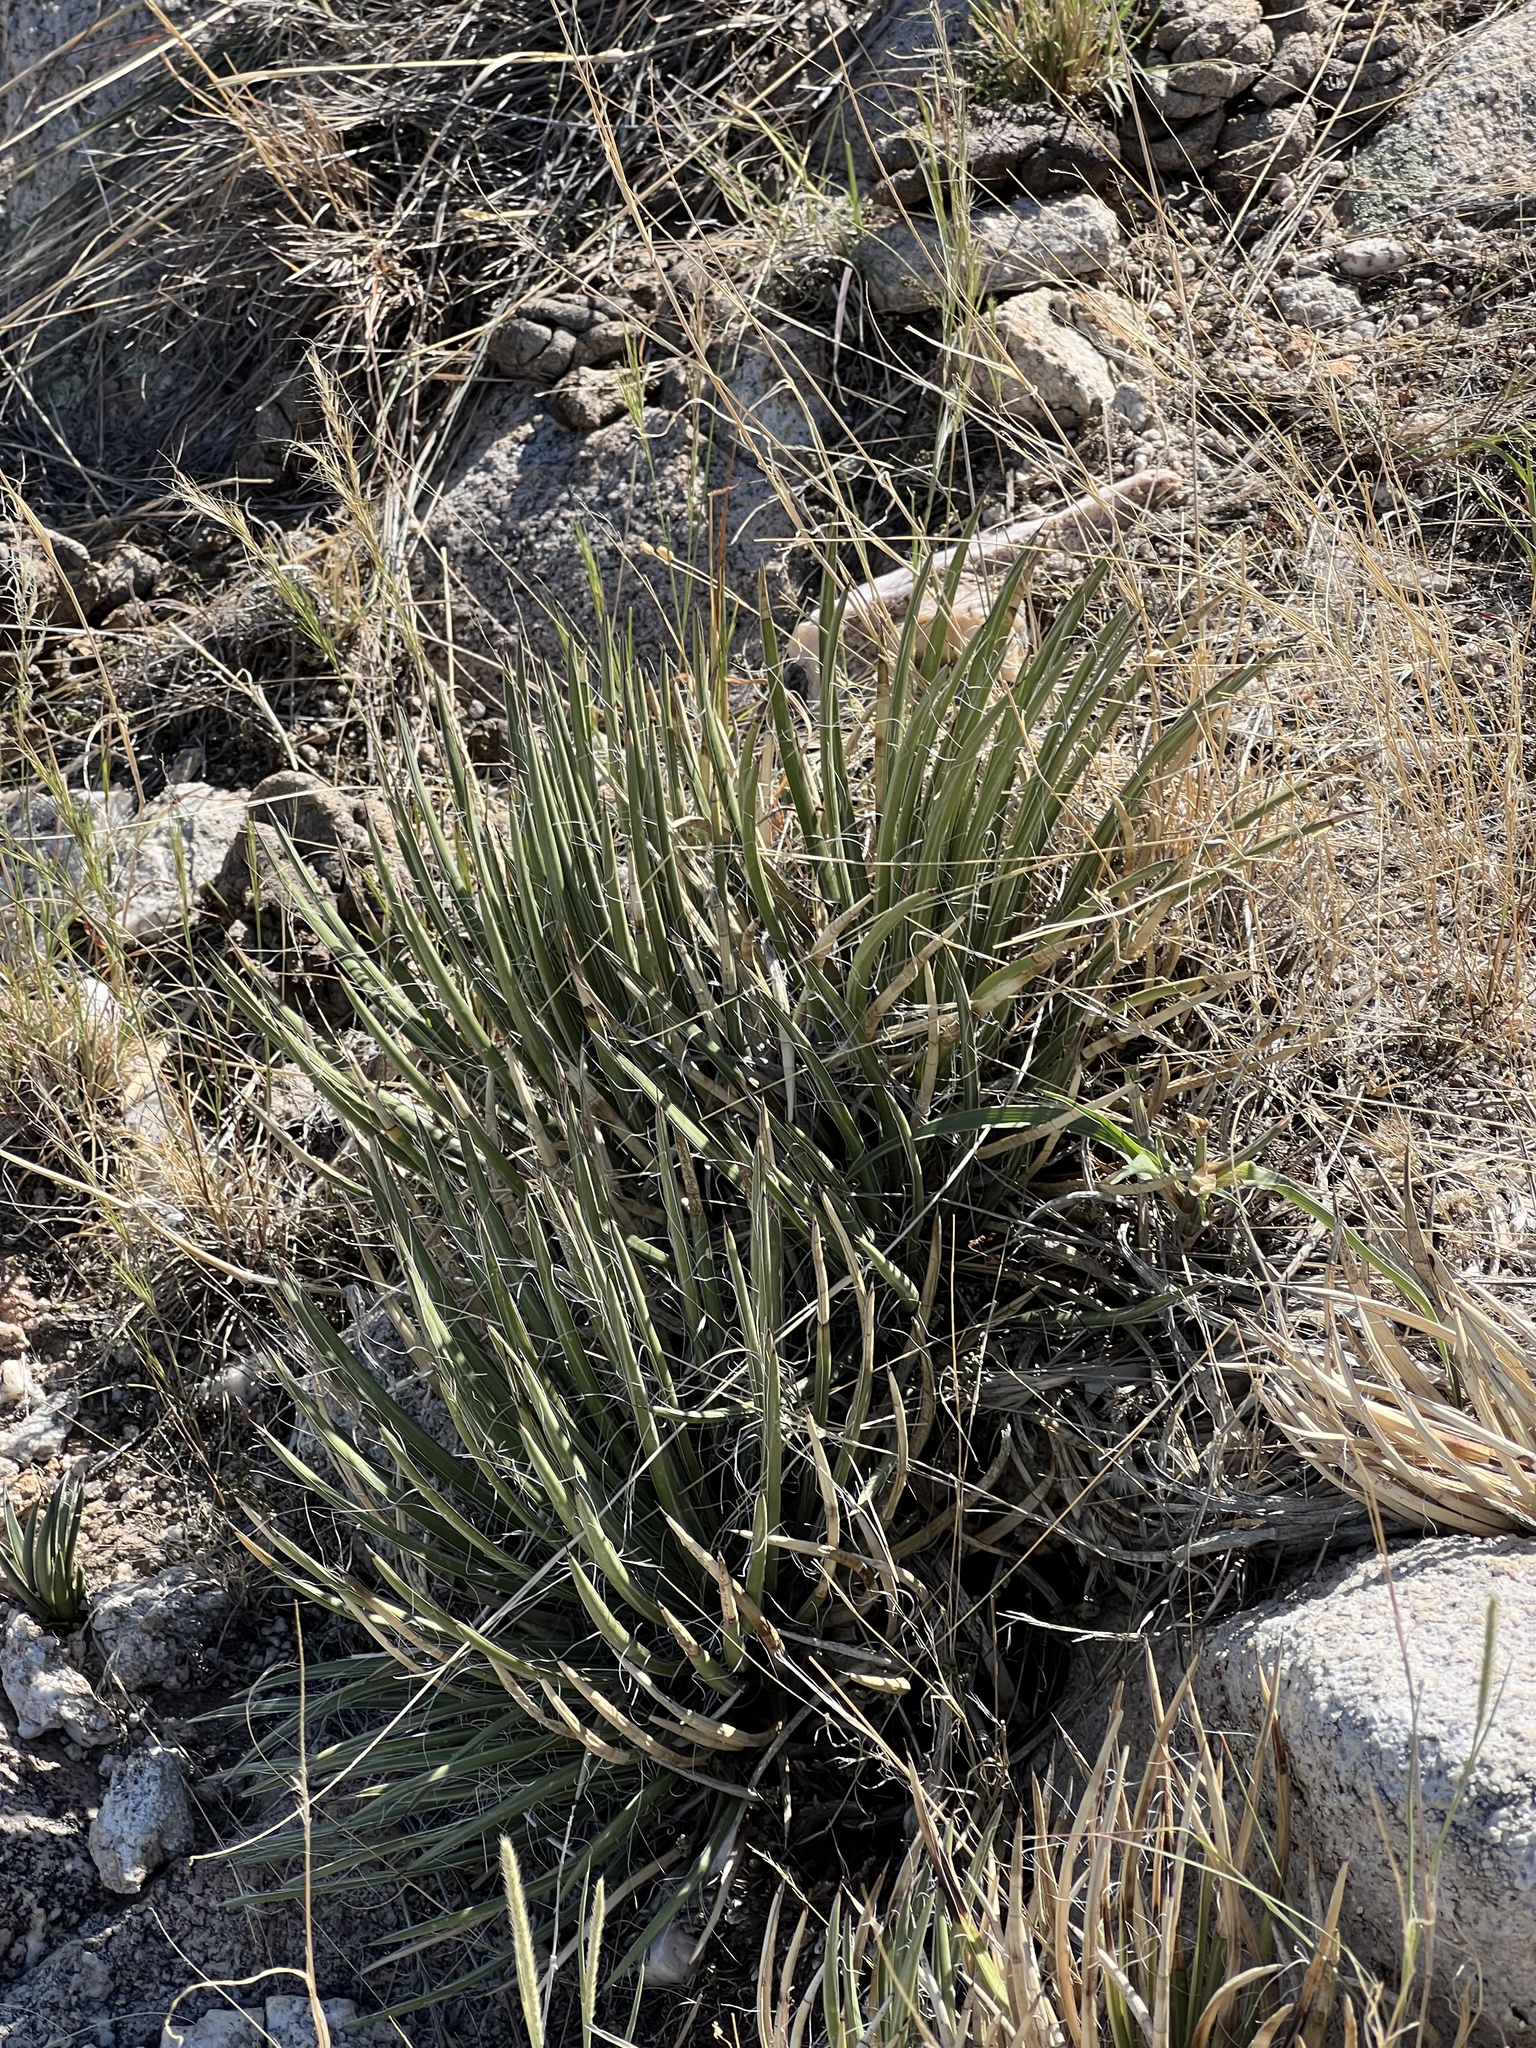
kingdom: Plantae
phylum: Tracheophyta
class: Liliopsida
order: Asparagales
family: Asparagaceae
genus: Agave
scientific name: Agave schottii
